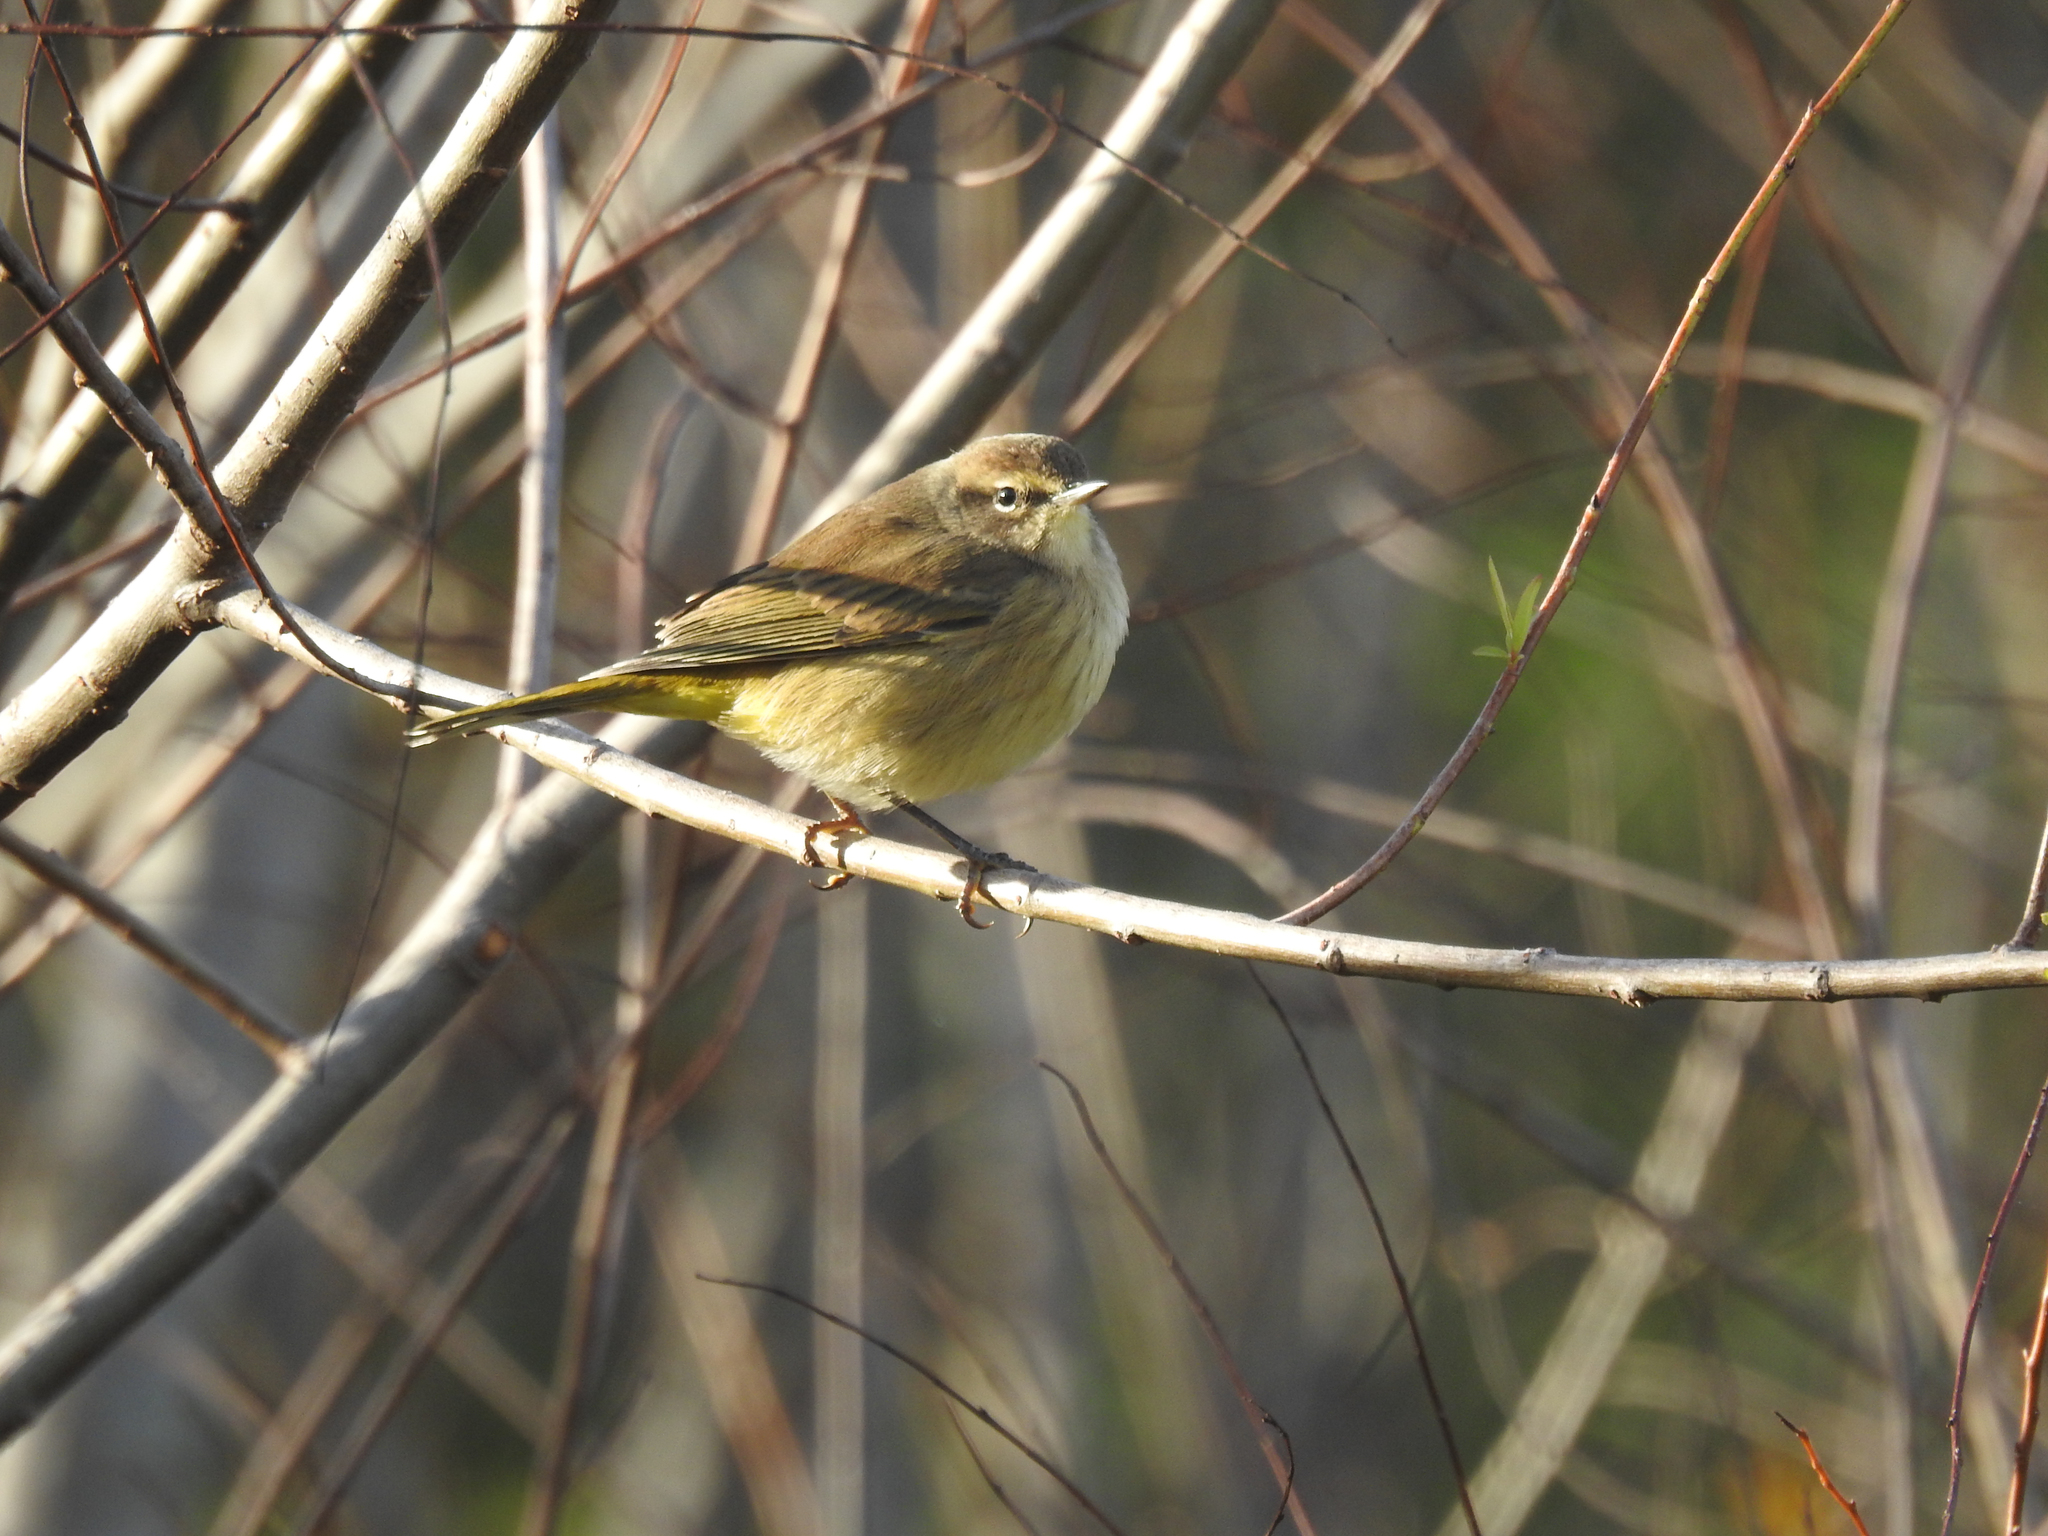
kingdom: Animalia
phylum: Chordata
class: Aves
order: Passeriformes
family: Parulidae
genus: Setophaga
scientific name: Setophaga palmarum
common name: Palm warbler
